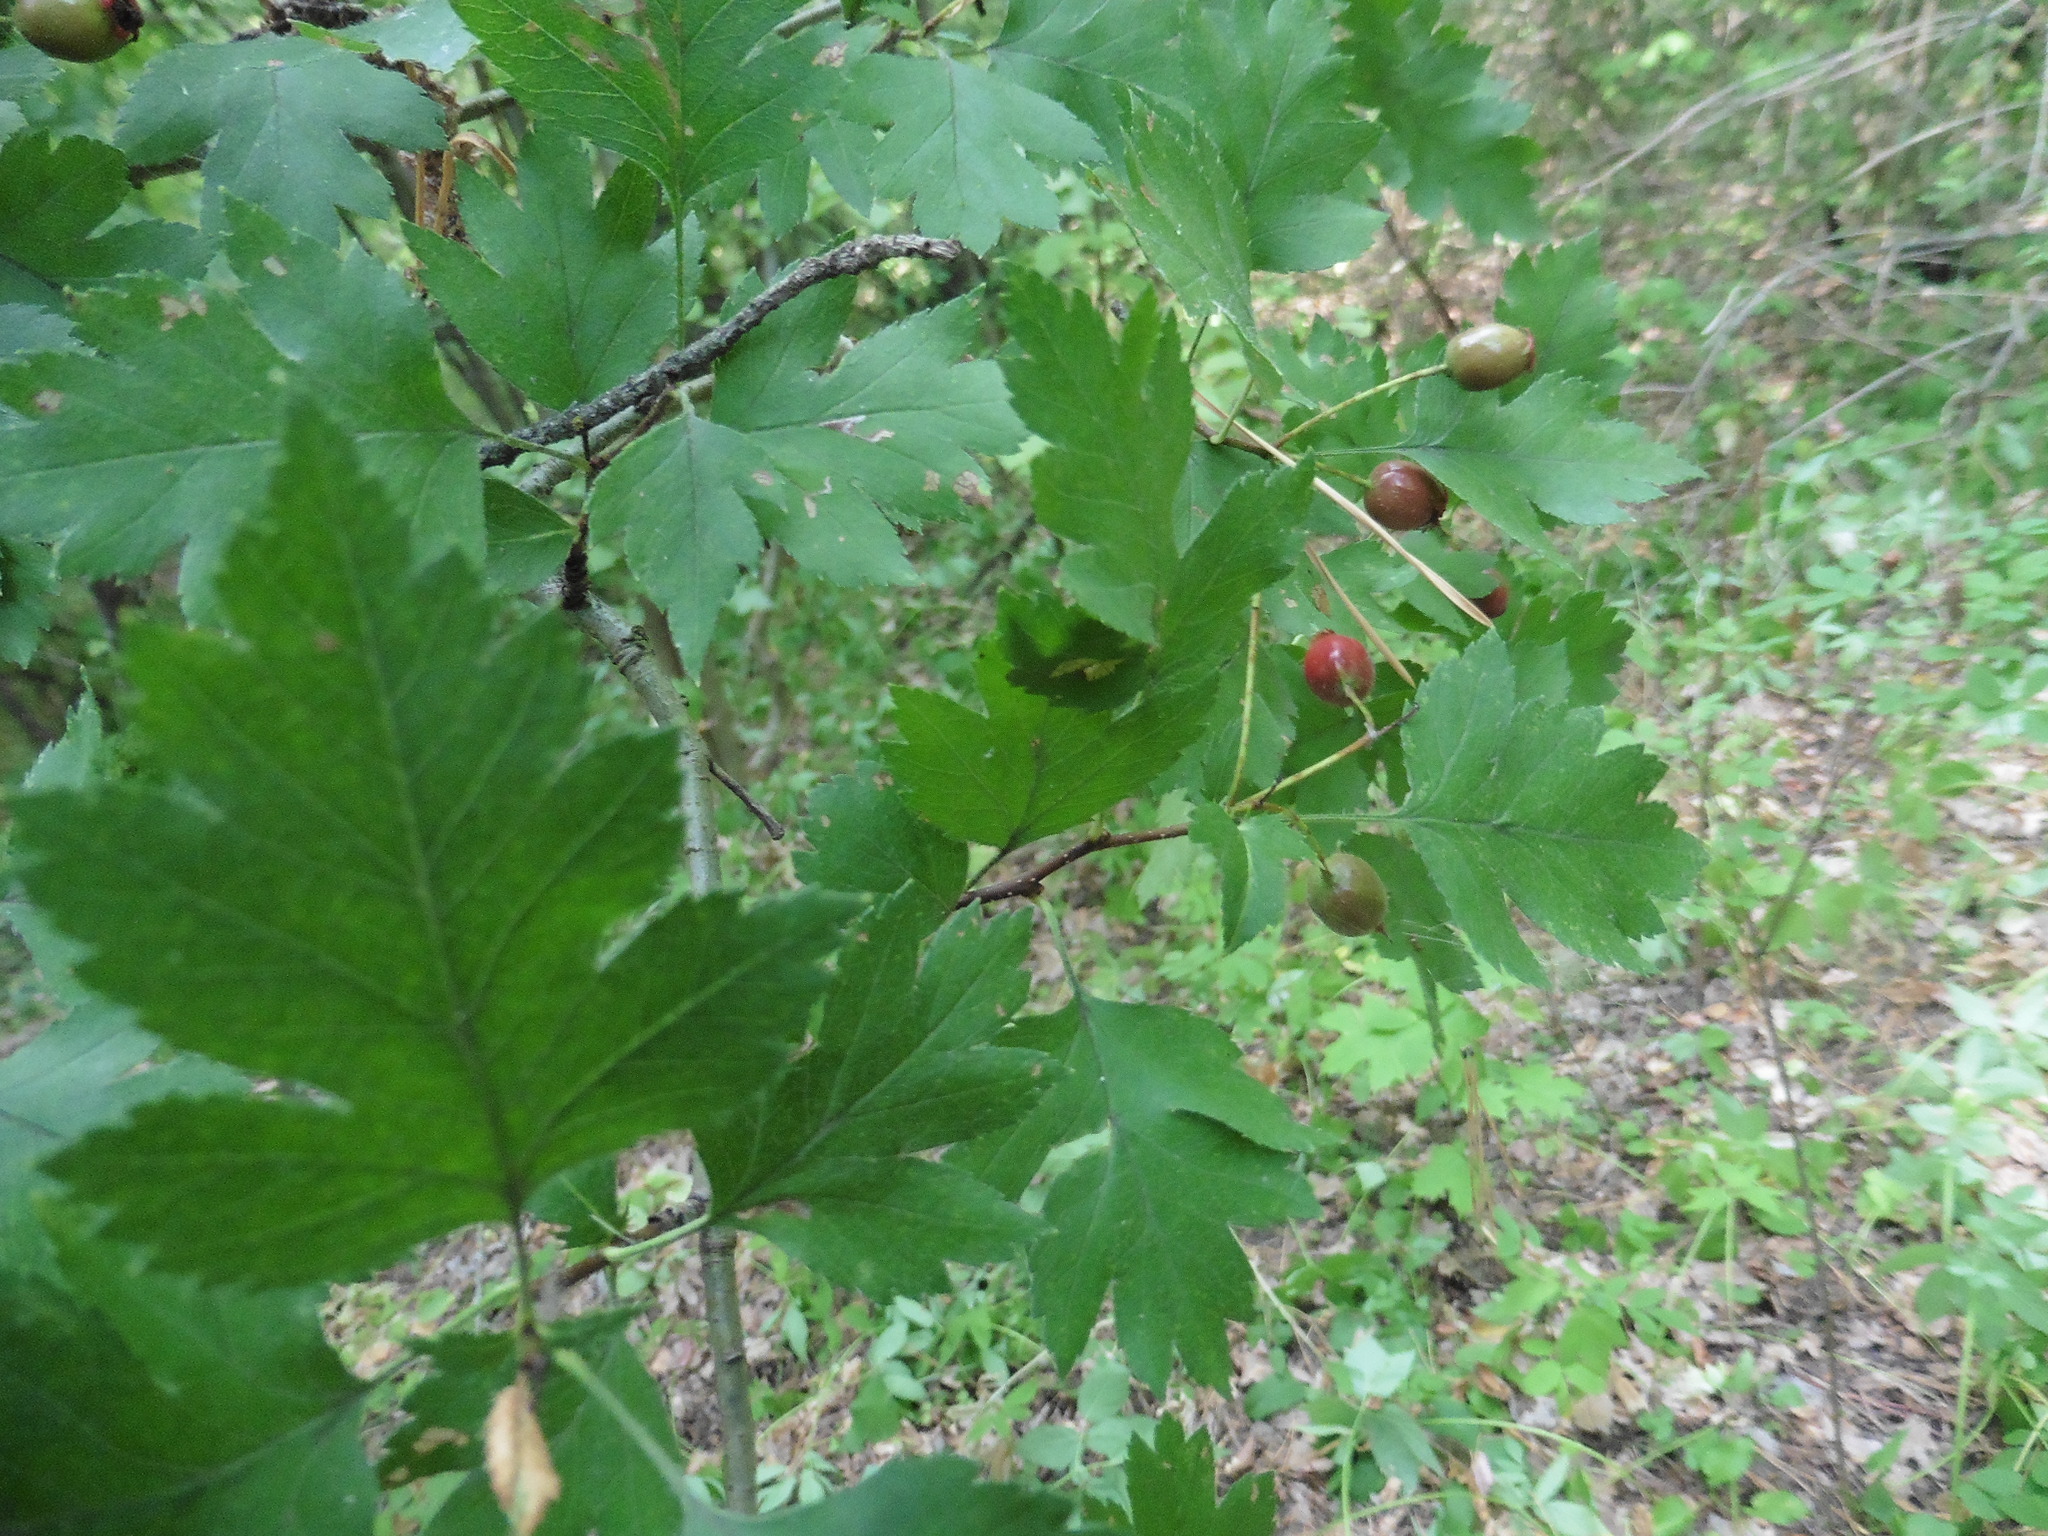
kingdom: Plantae
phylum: Tracheophyta
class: Magnoliopsida
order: Rosales
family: Rosaceae
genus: Crataegus
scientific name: Crataegus rhipidophylla
